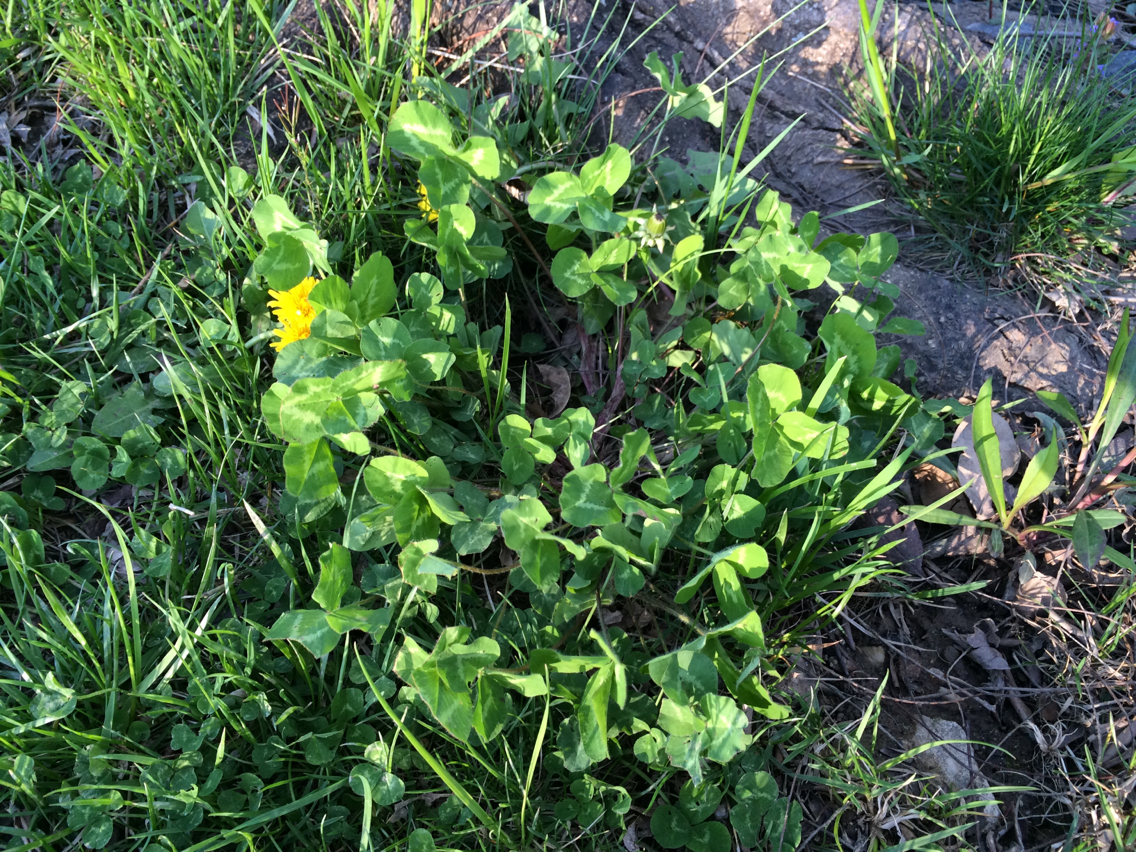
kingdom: Plantae
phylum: Tracheophyta
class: Magnoliopsida
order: Fabales
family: Fabaceae
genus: Trifolium
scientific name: Trifolium pratense
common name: Red clover
